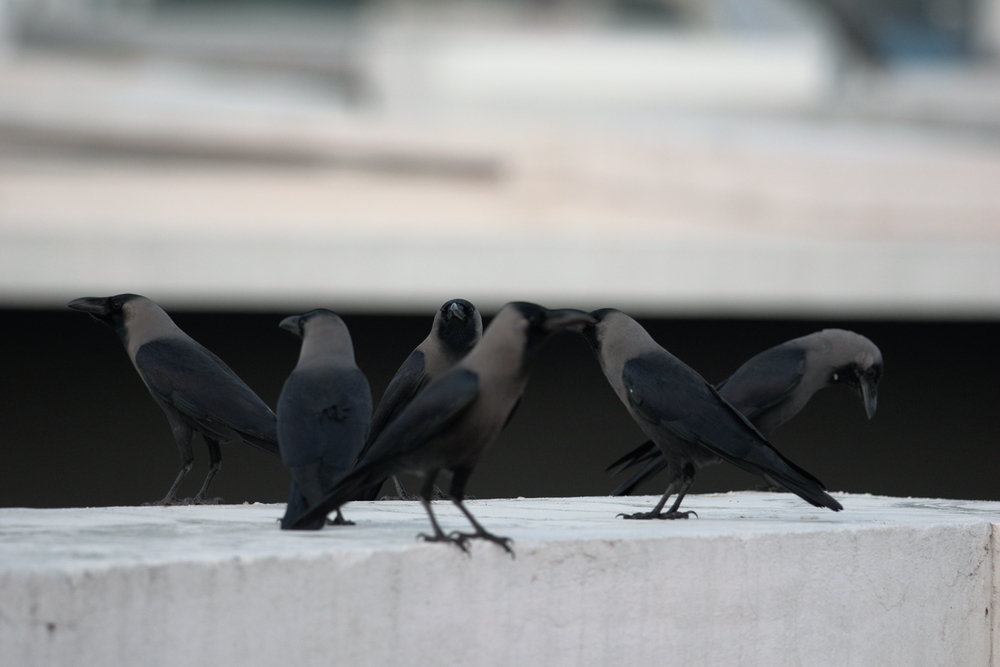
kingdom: Animalia
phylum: Chordata
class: Aves
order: Passeriformes
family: Corvidae
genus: Corvus
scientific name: Corvus splendens
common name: House crow
